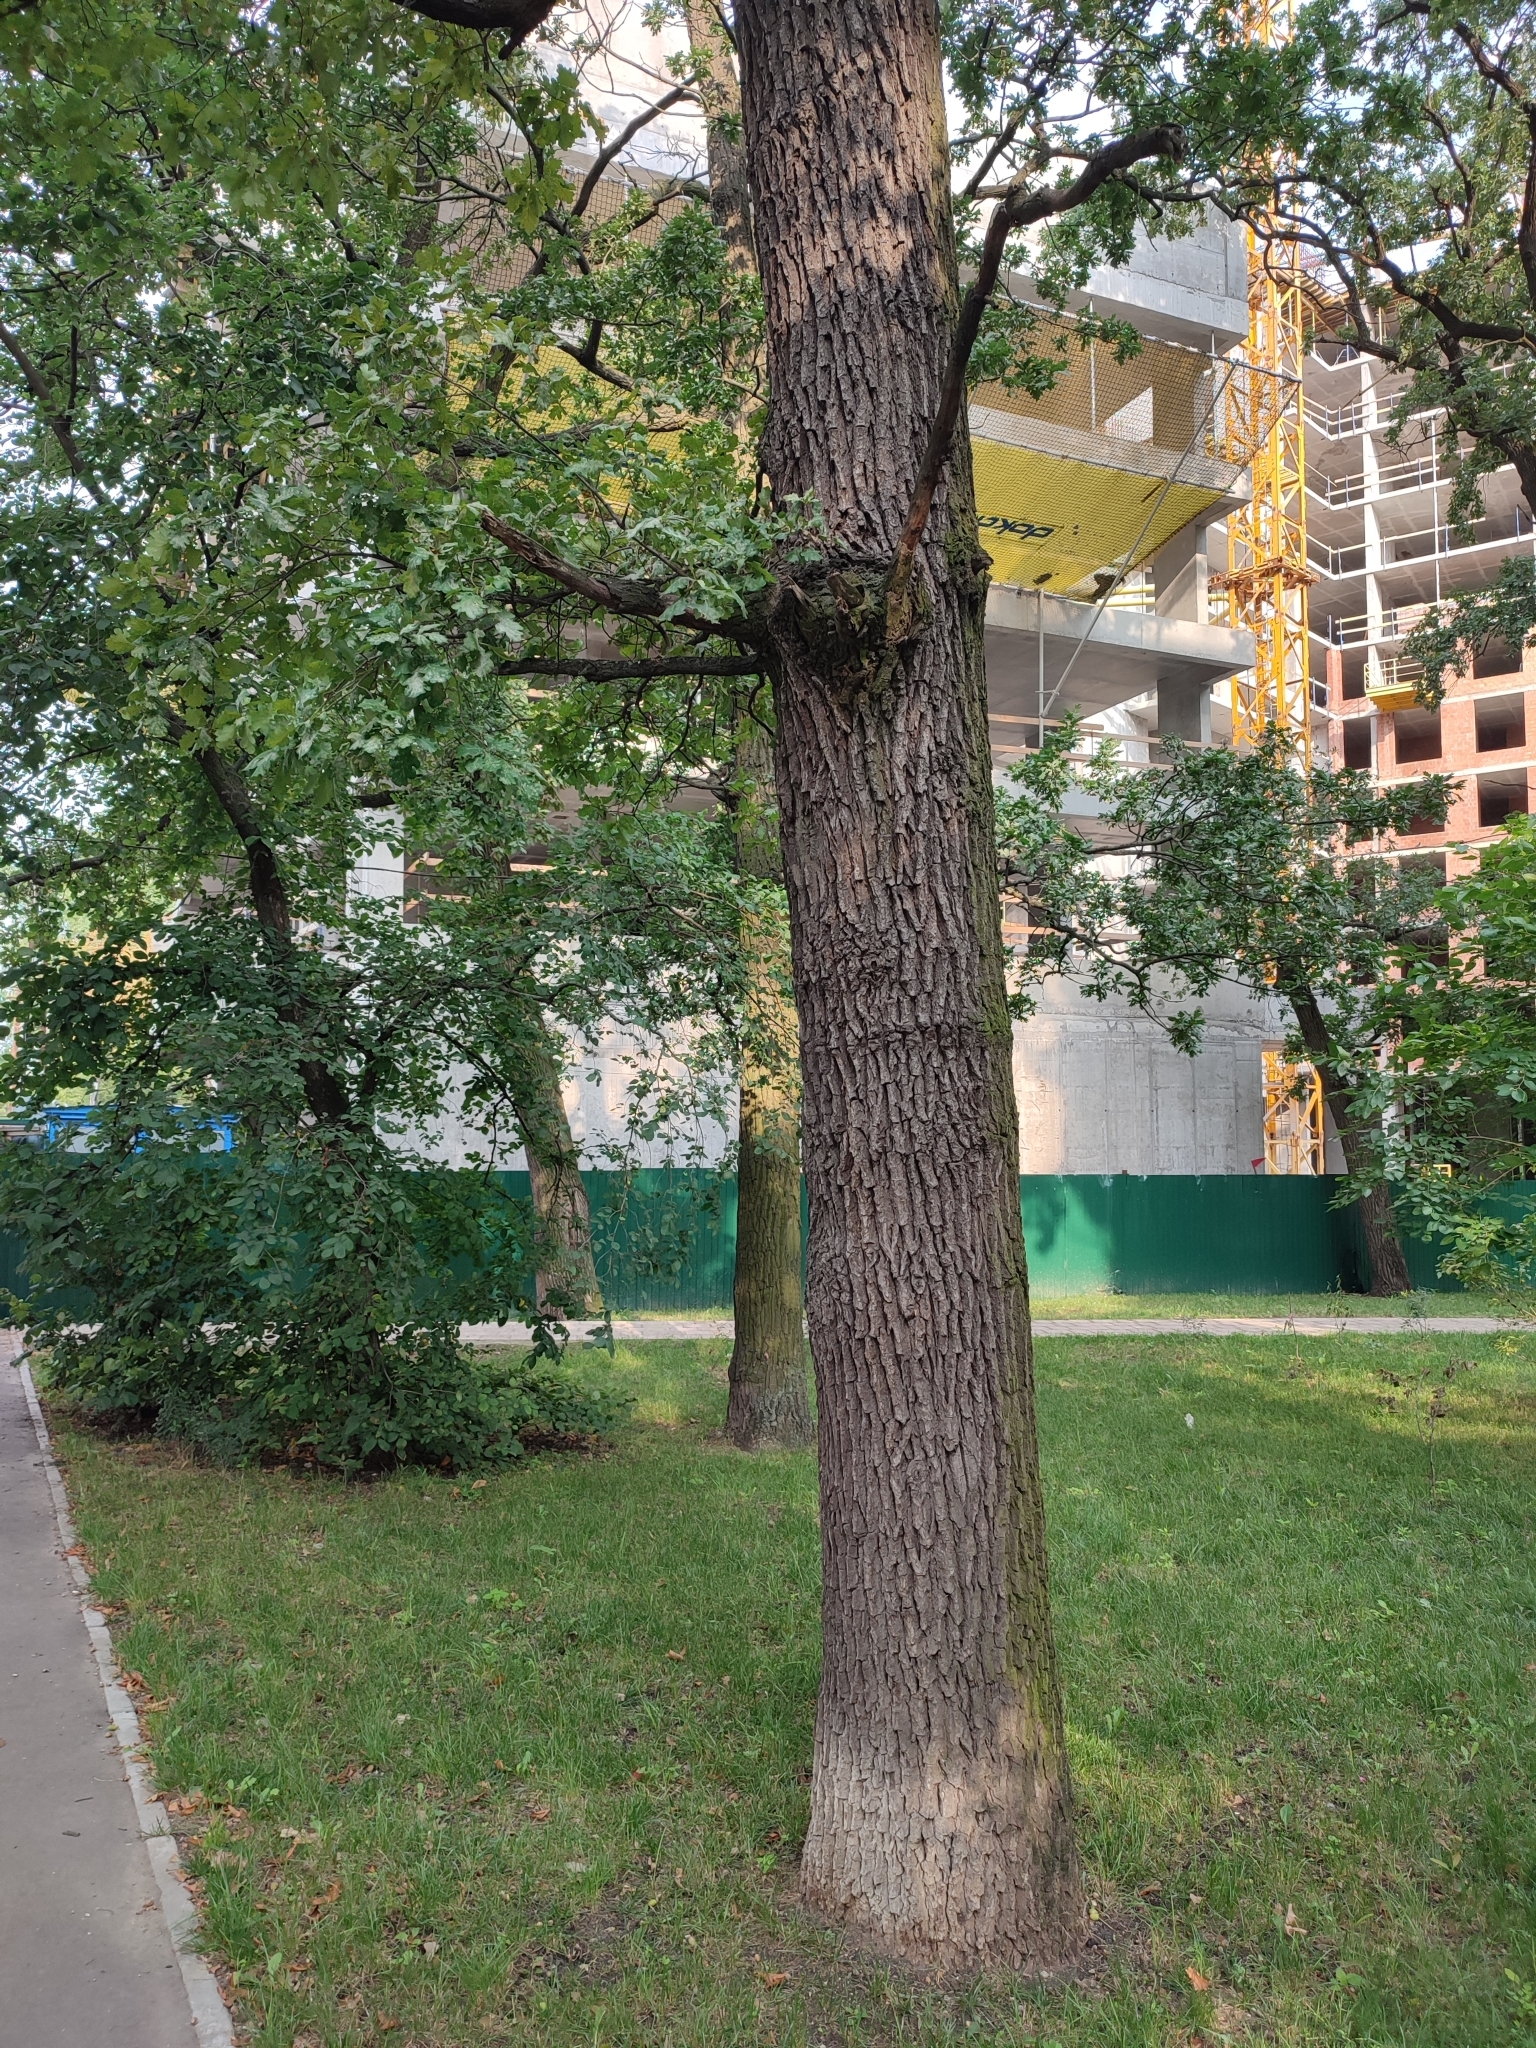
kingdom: Plantae
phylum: Tracheophyta
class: Magnoliopsida
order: Fagales
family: Fagaceae
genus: Quercus
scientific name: Quercus robur
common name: Pedunculate oak
